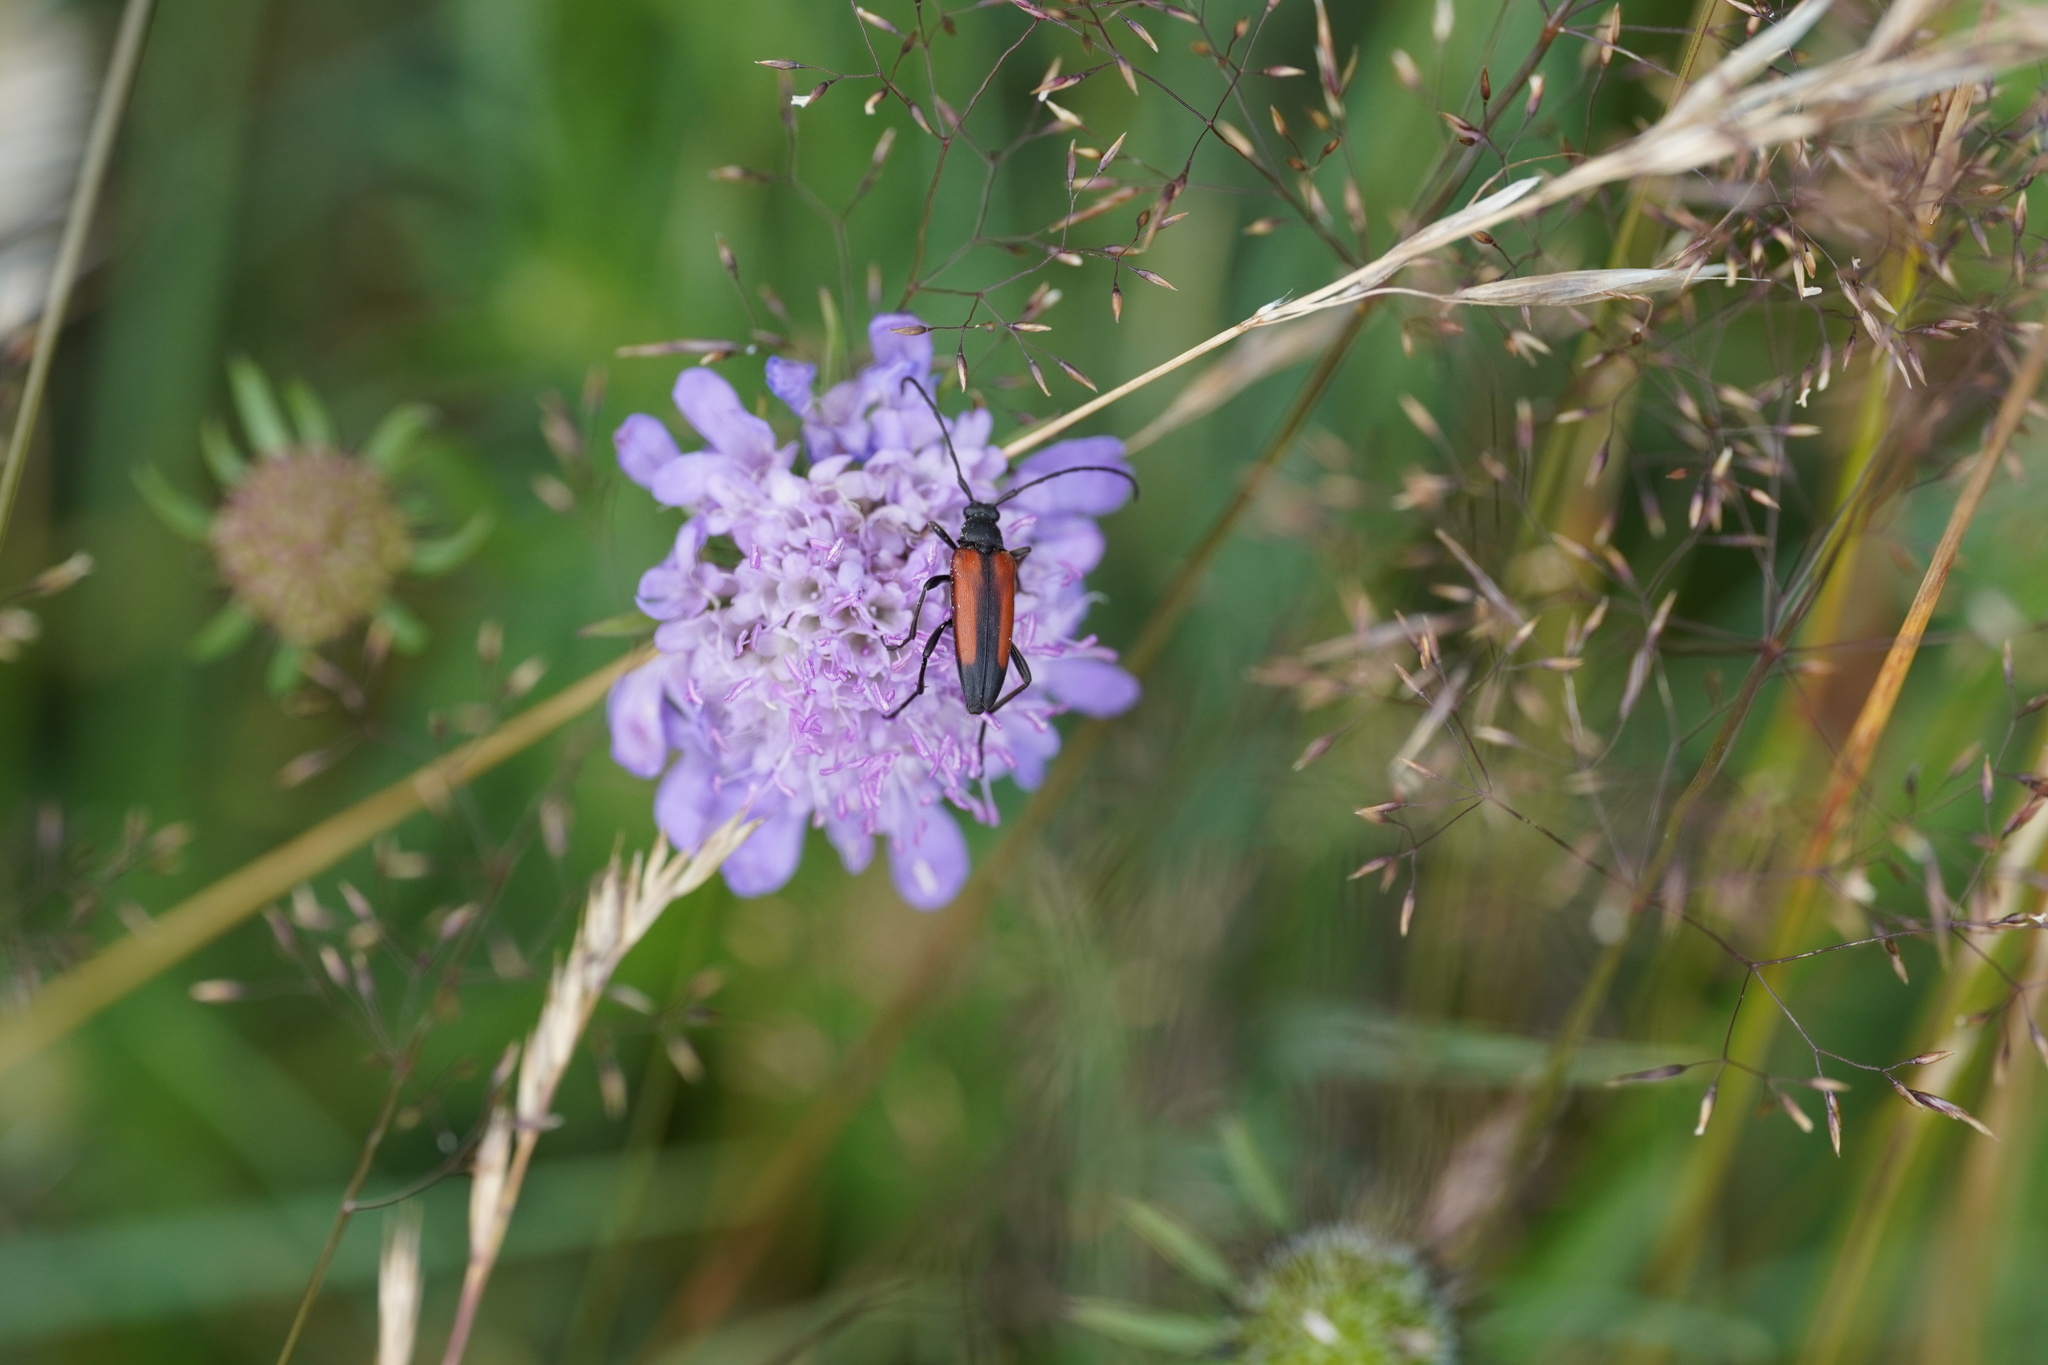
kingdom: Animalia
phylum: Arthropoda
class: Insecta
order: Coleoptera
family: Cerambycidae
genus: Stenurella
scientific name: Stenurella melanura
